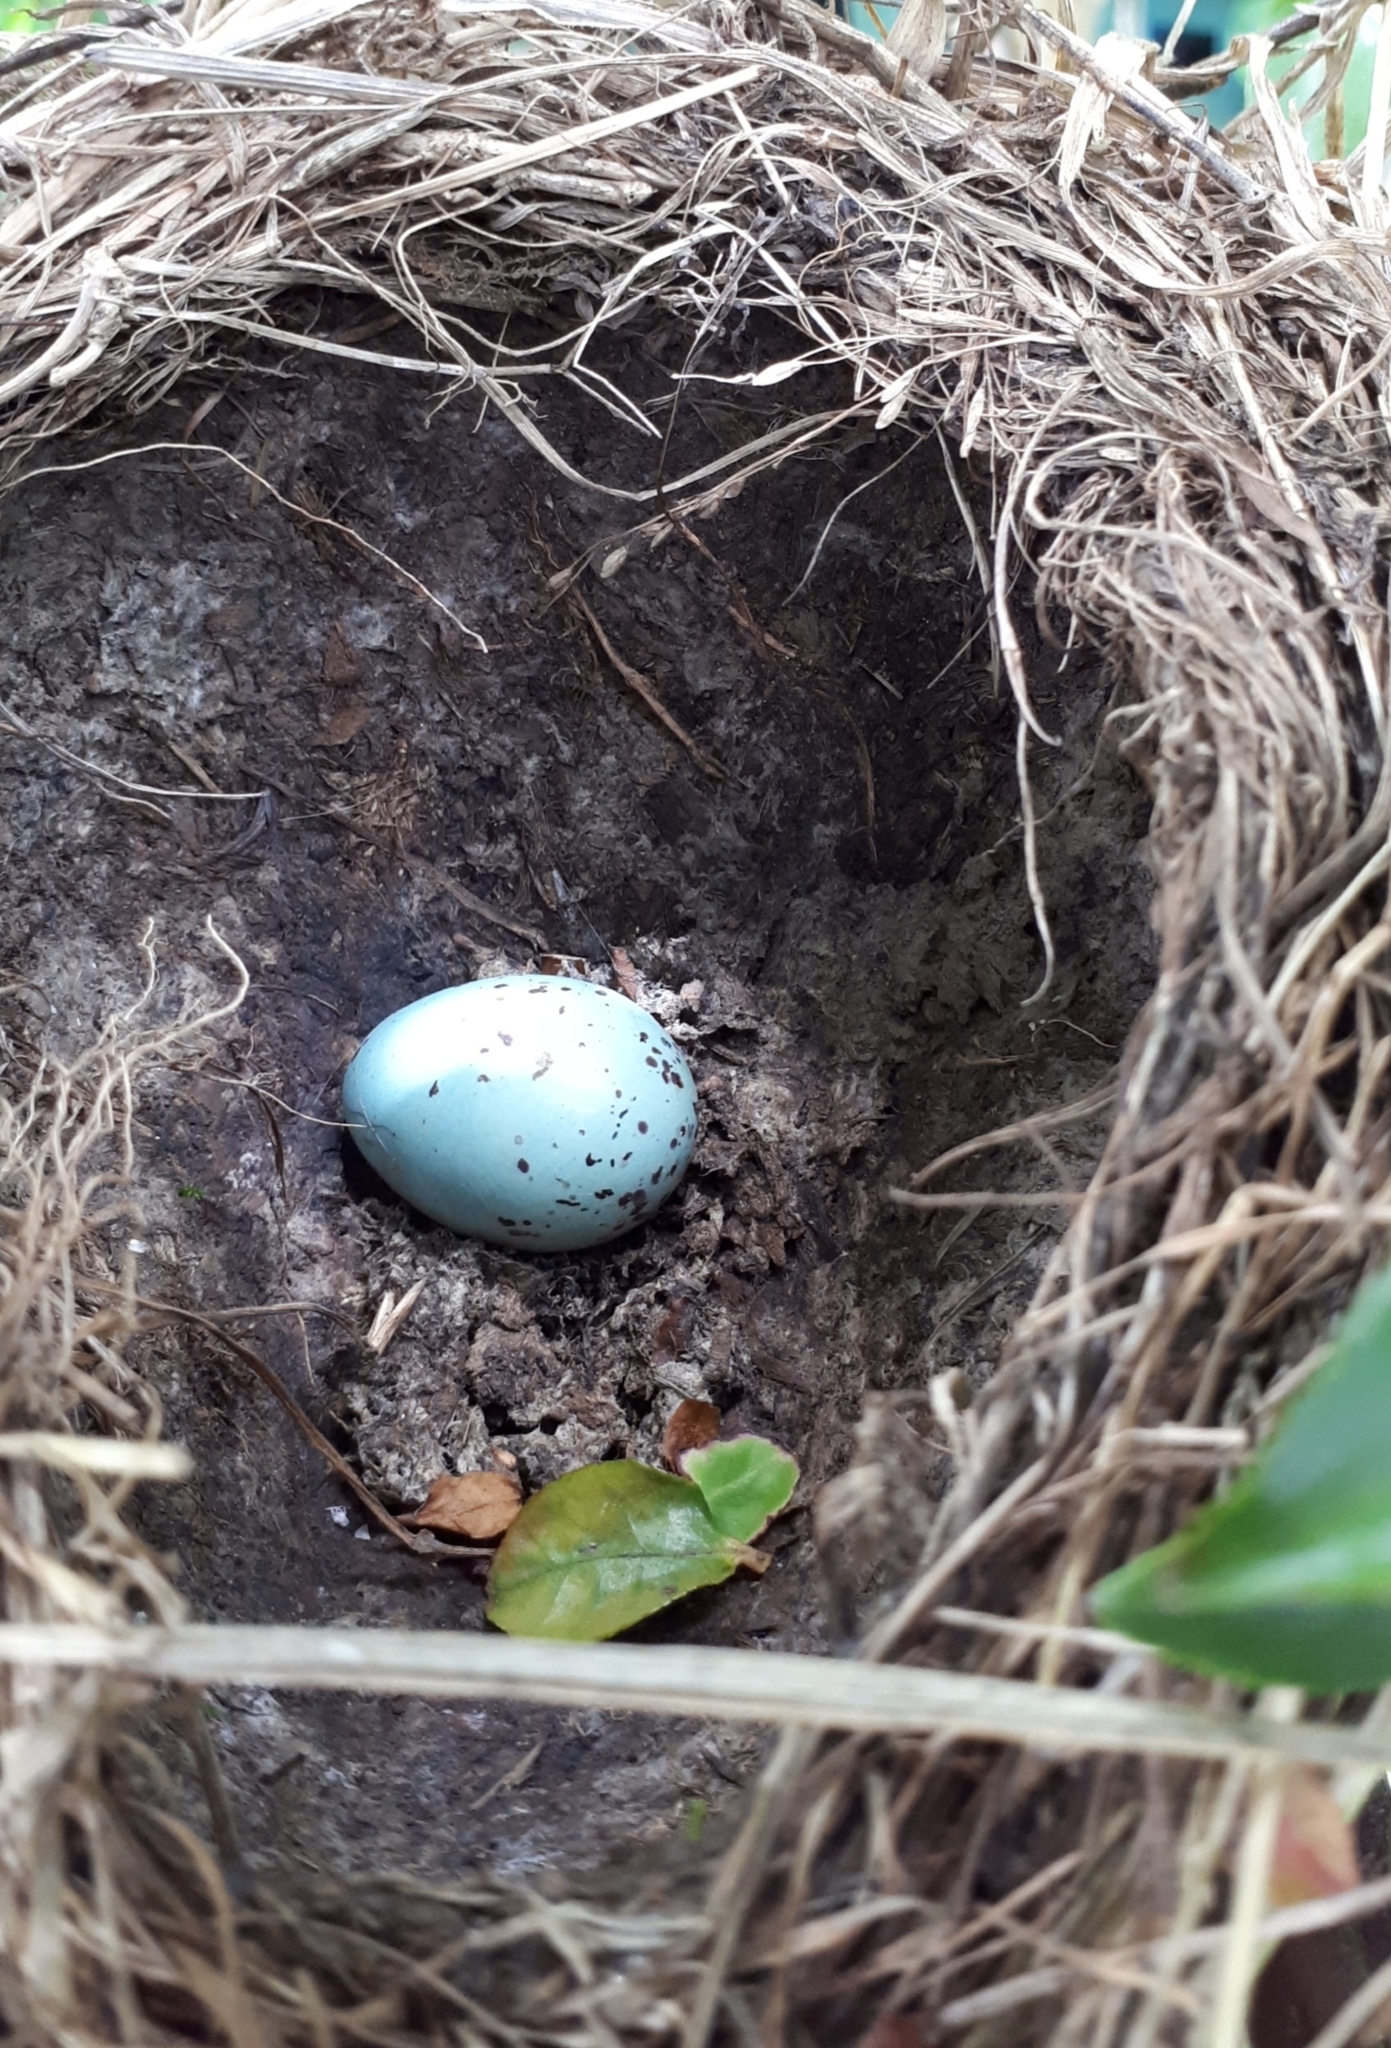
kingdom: Animalia
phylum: Chordata
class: Aves
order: Passeriformes
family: Turdidae
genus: Turdus
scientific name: Turdus philomelos
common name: Song thrush
